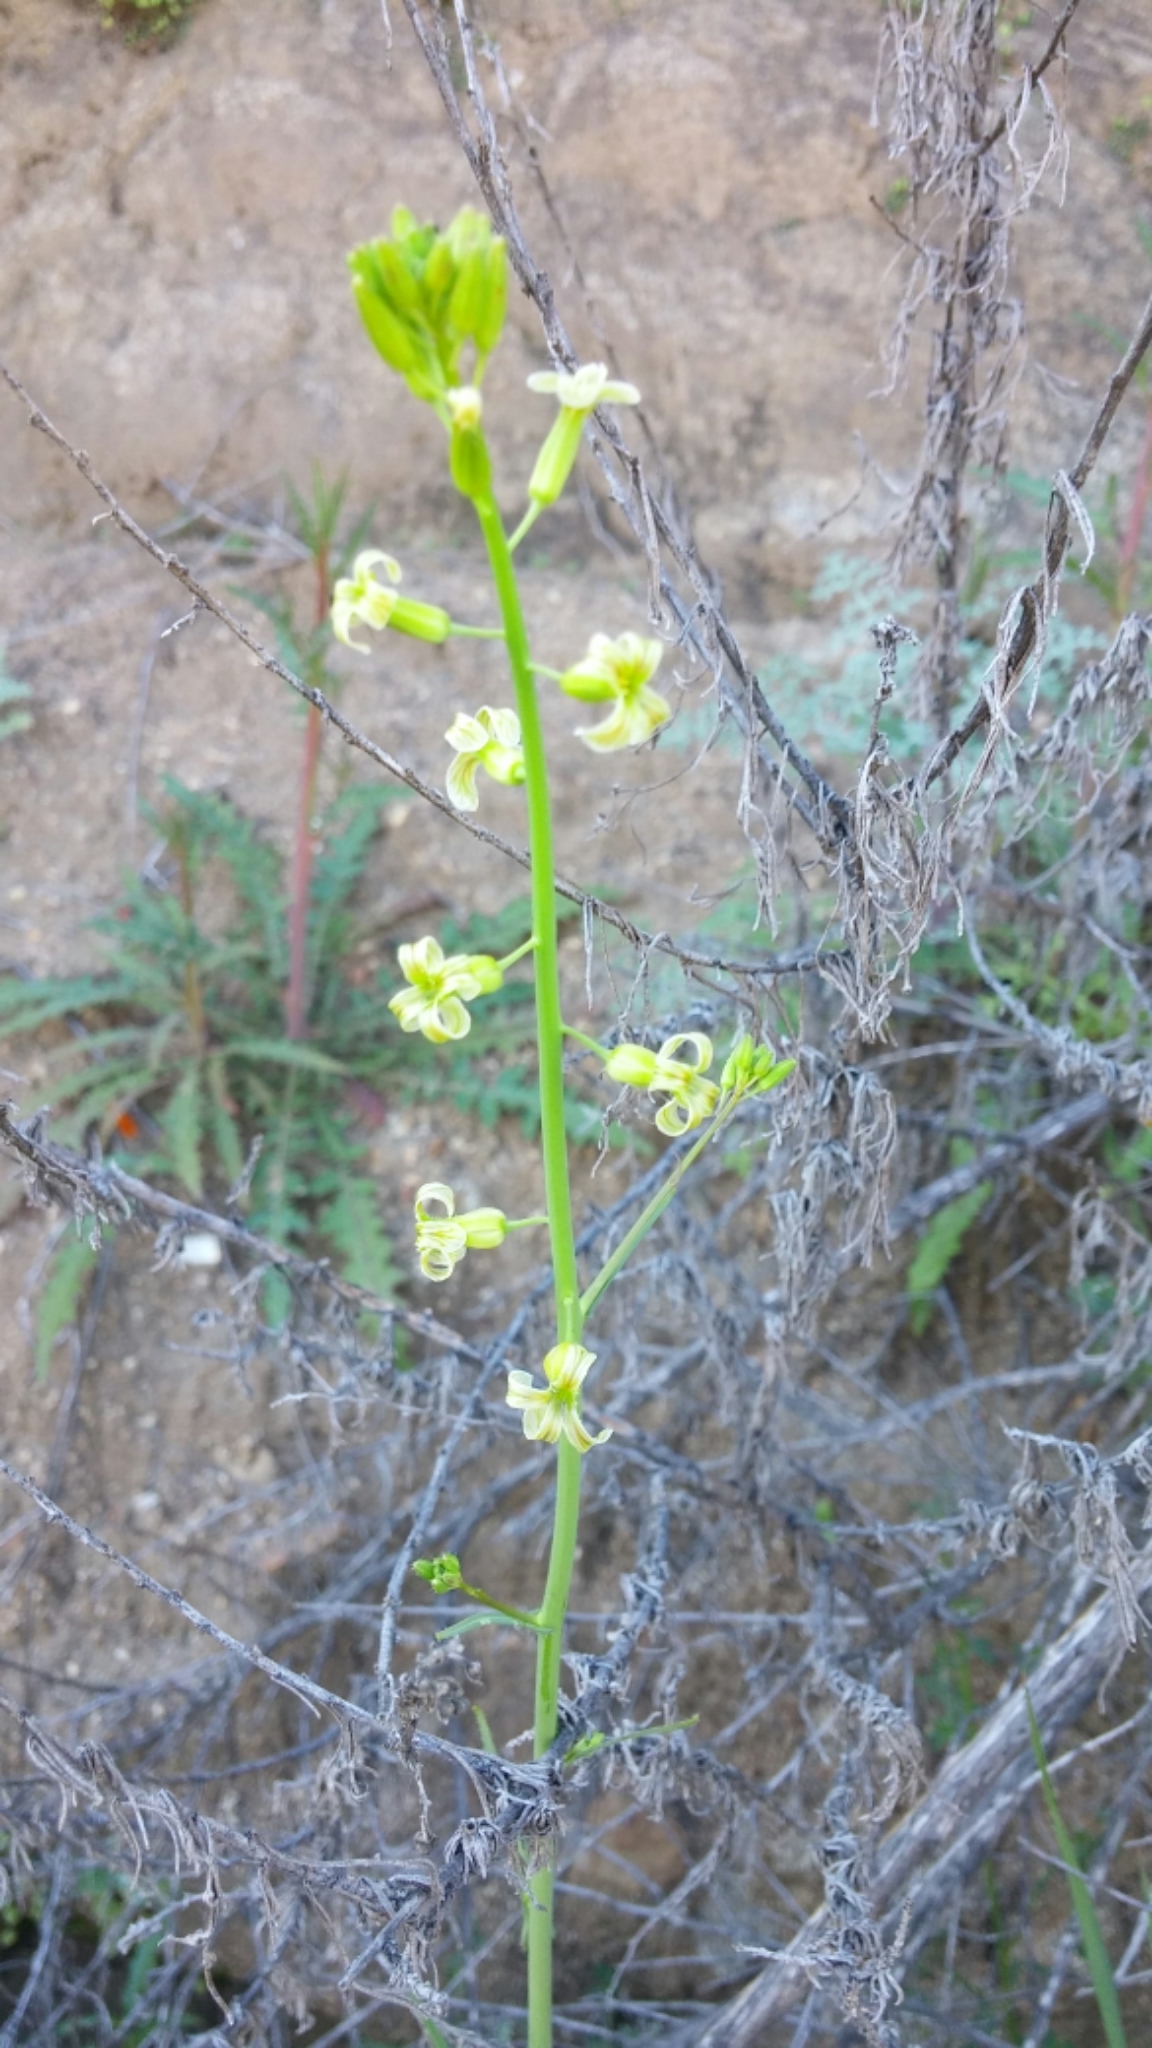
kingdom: Plantae
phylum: Tracheophyta
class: Magnoliopsida
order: Brassicales
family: Brassicaceae
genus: Streptanthus
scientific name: Streptanthus heterophyllus
